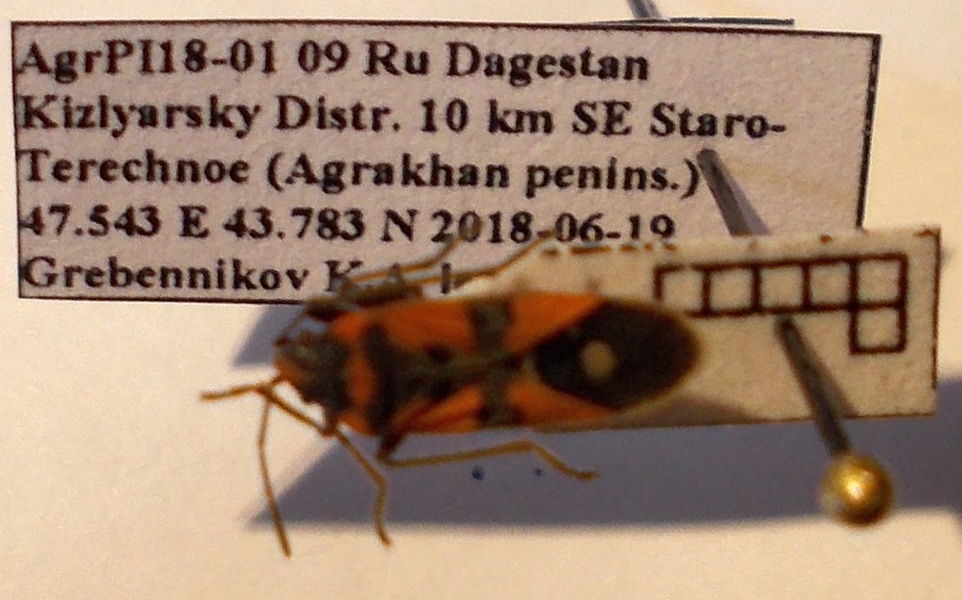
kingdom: Animalia
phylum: Arthropoda
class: Insecta
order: Hemiptera
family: Lygaeidae
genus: Lygaeus
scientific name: Lygaeus equestris
